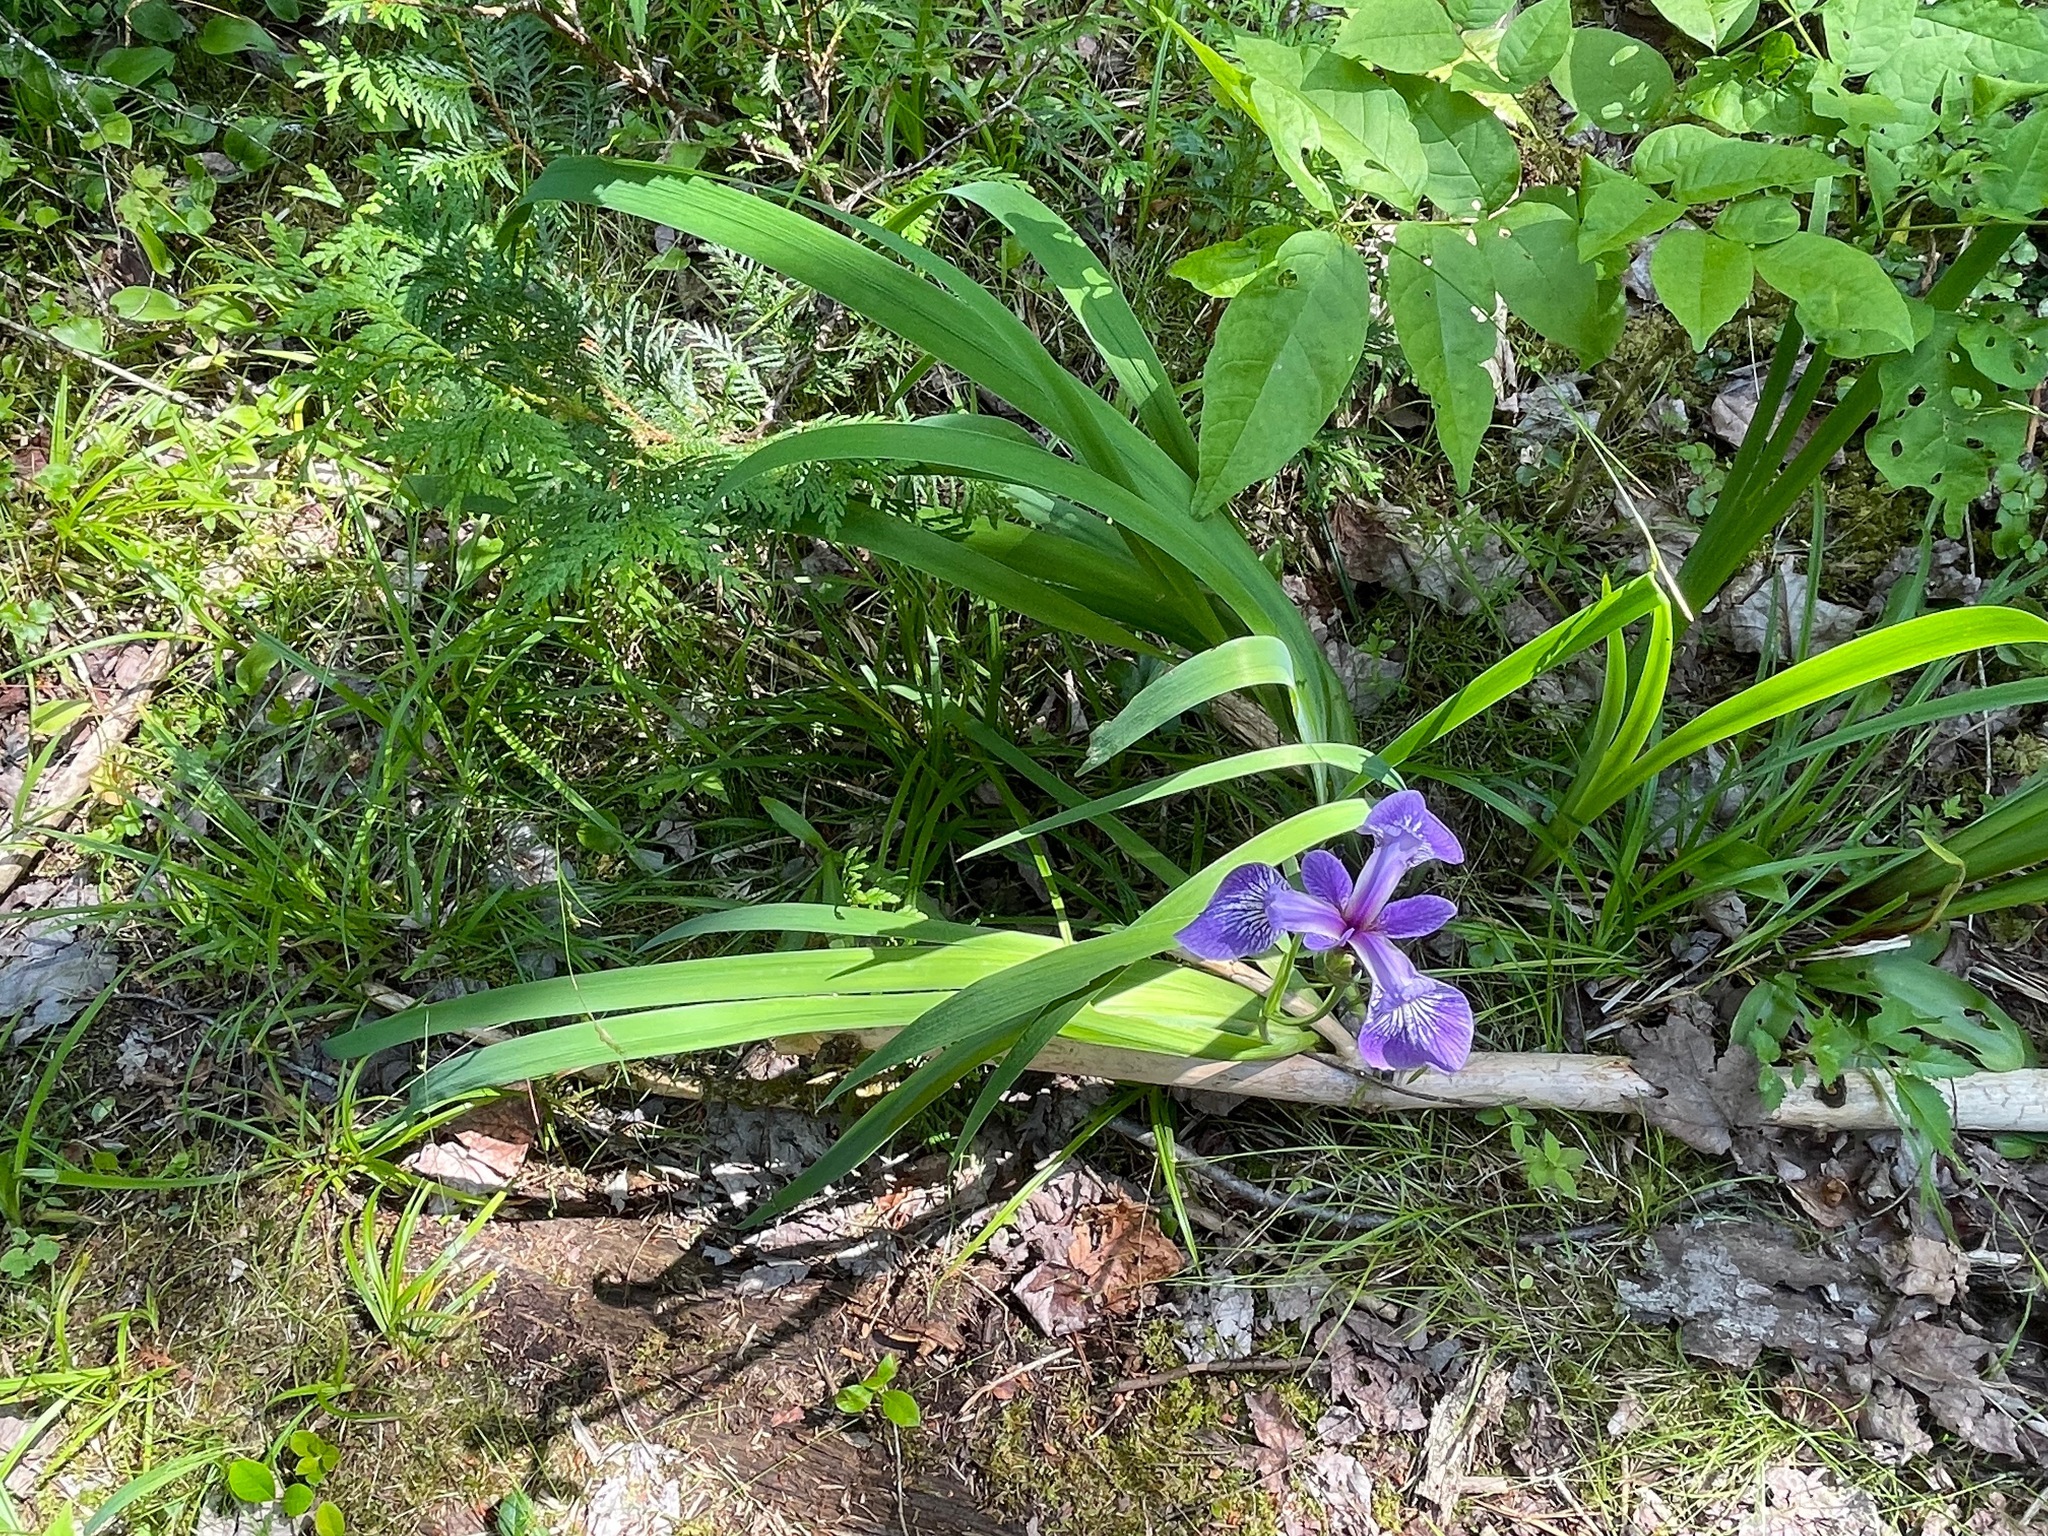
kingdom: Plantae
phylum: Tracheophyta
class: Liliopsida
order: Asparagales
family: Iridaceae
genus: Iris
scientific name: Iris versicolor
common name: Purple iris
